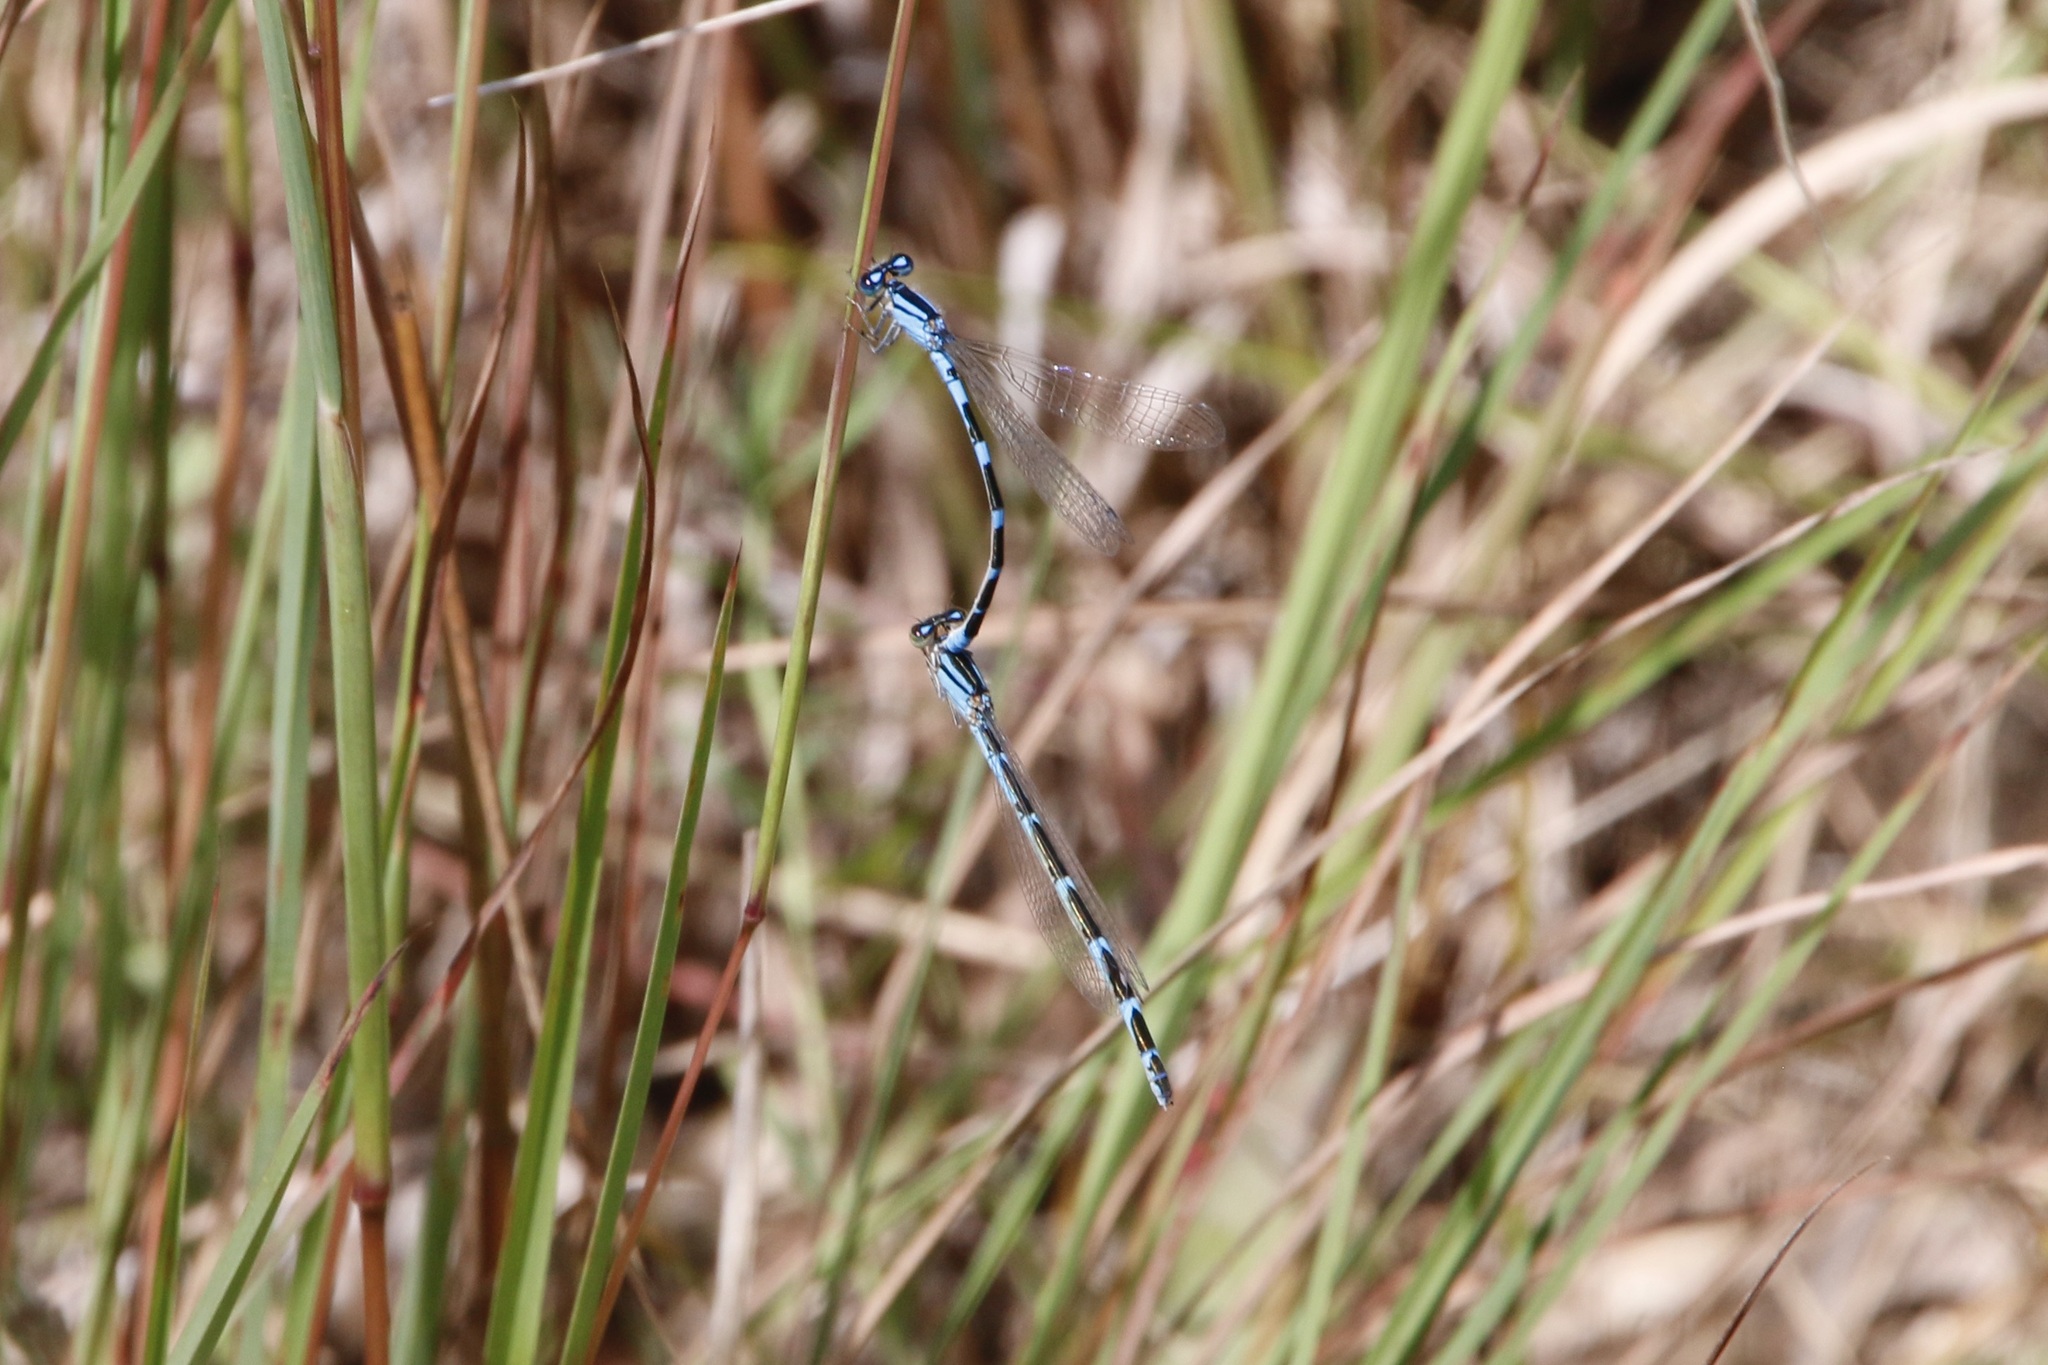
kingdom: Animalia
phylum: Arthropoda
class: Insecta
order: Odonata
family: Coenagrionidae
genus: Enallagma
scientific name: Enallagma carunculatum
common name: Tule bluet
